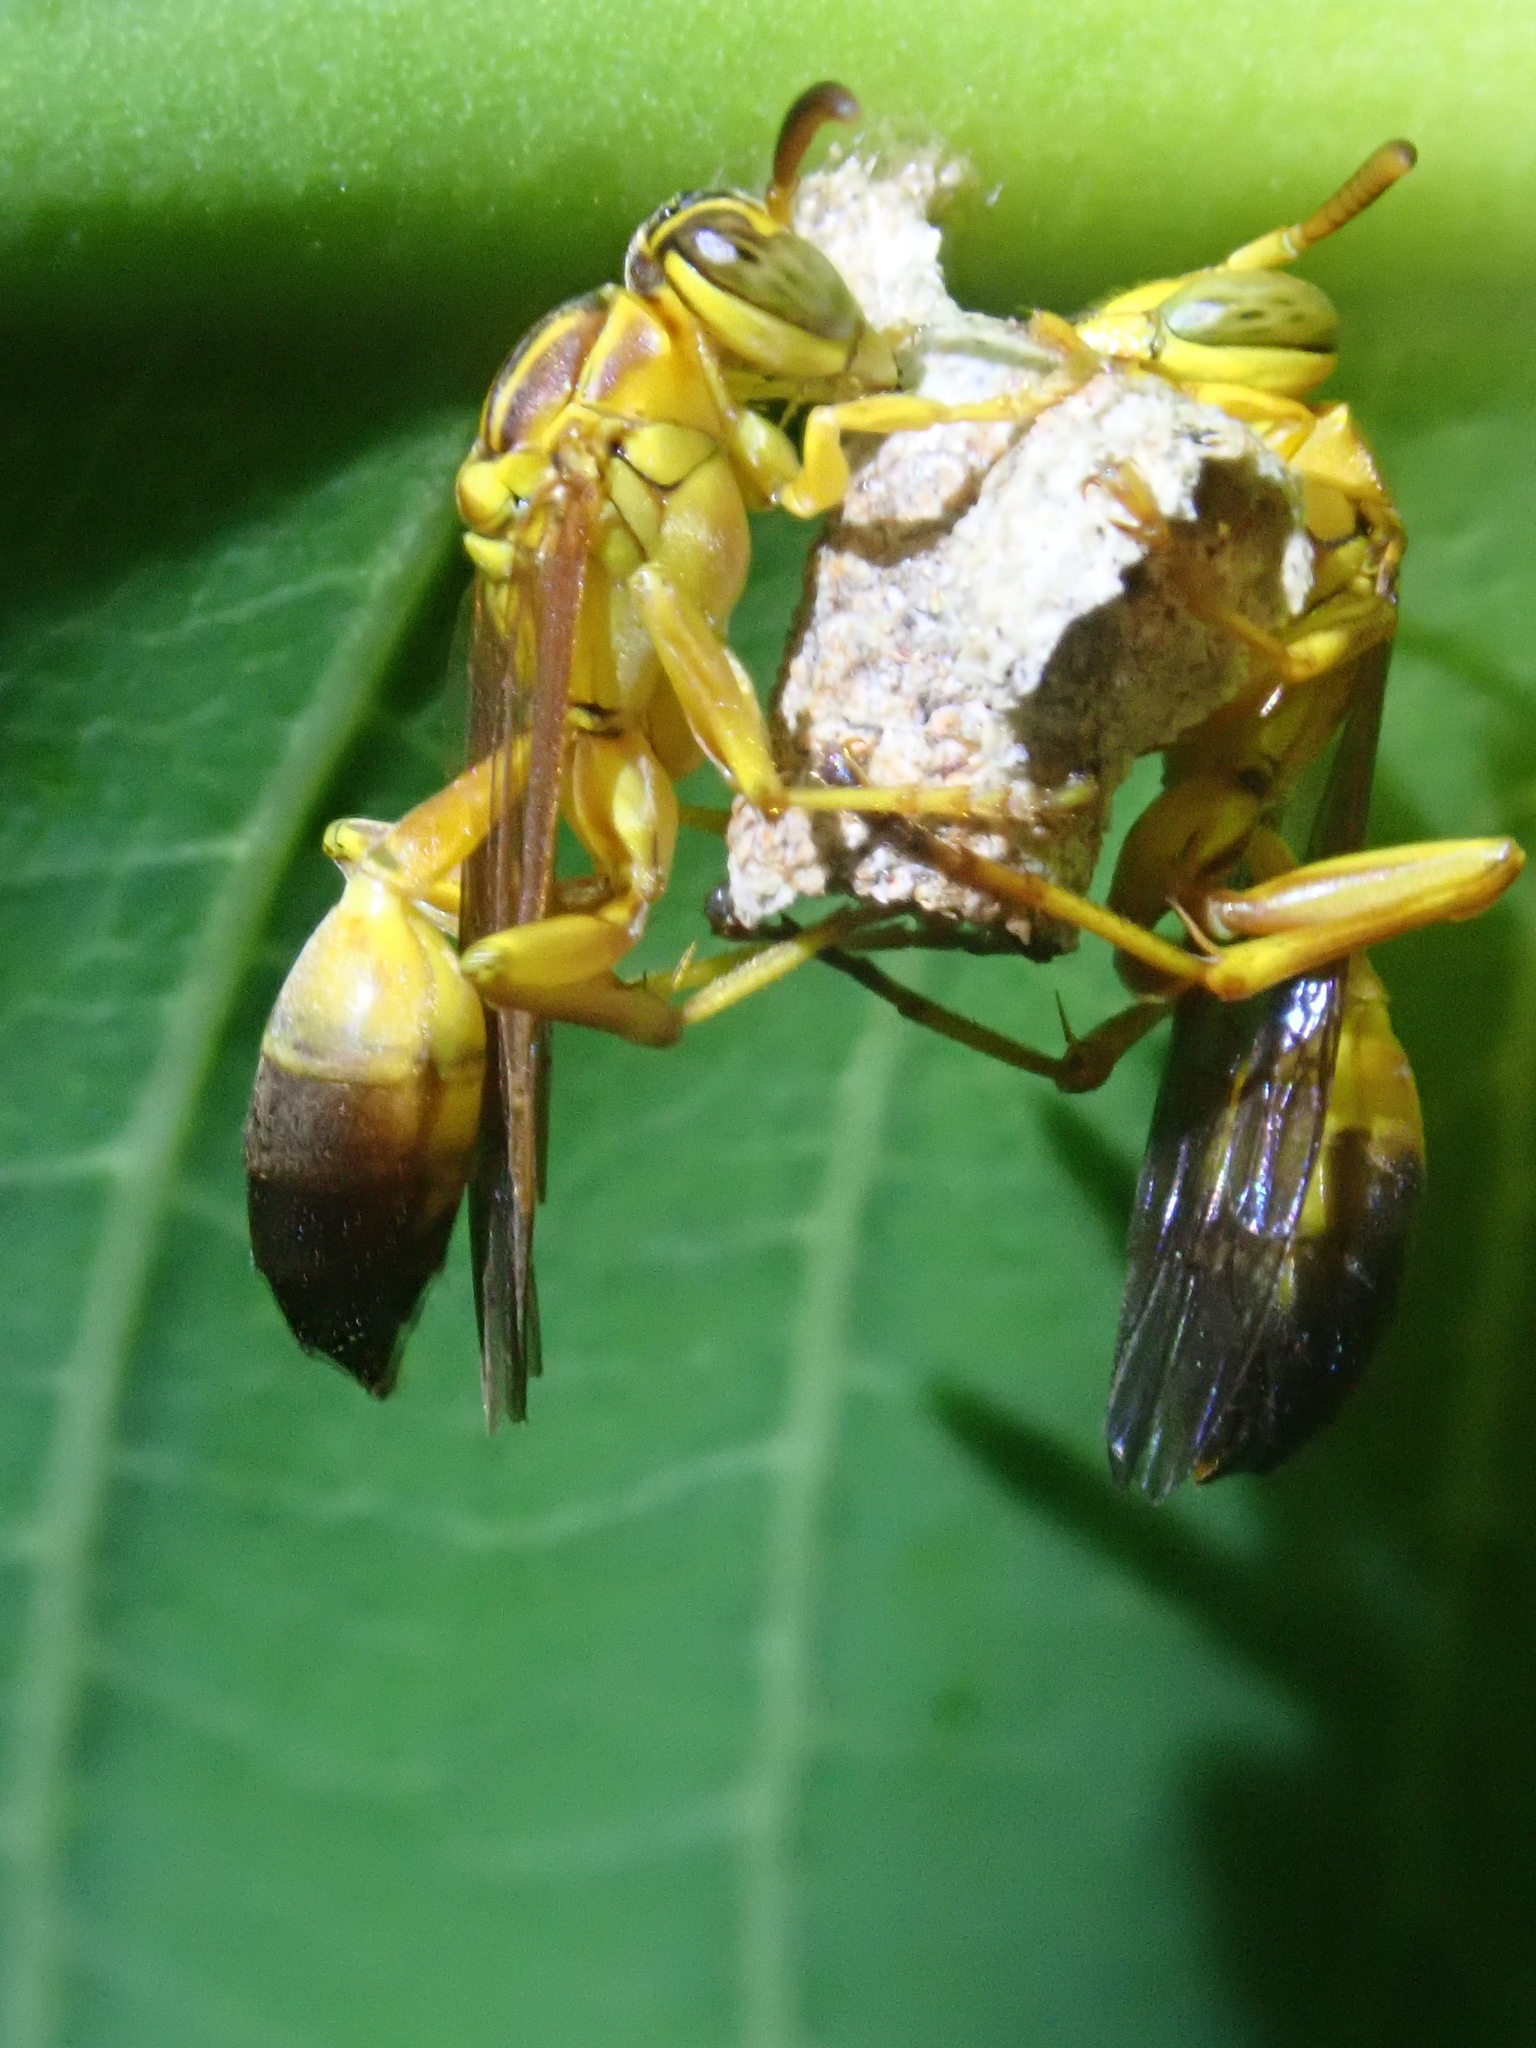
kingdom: Animalia
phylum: Arthropoda
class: Insecta
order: Hymenoptera
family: Vespidae
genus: Mischocyttarus
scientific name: Mischocyttarus cerberus
